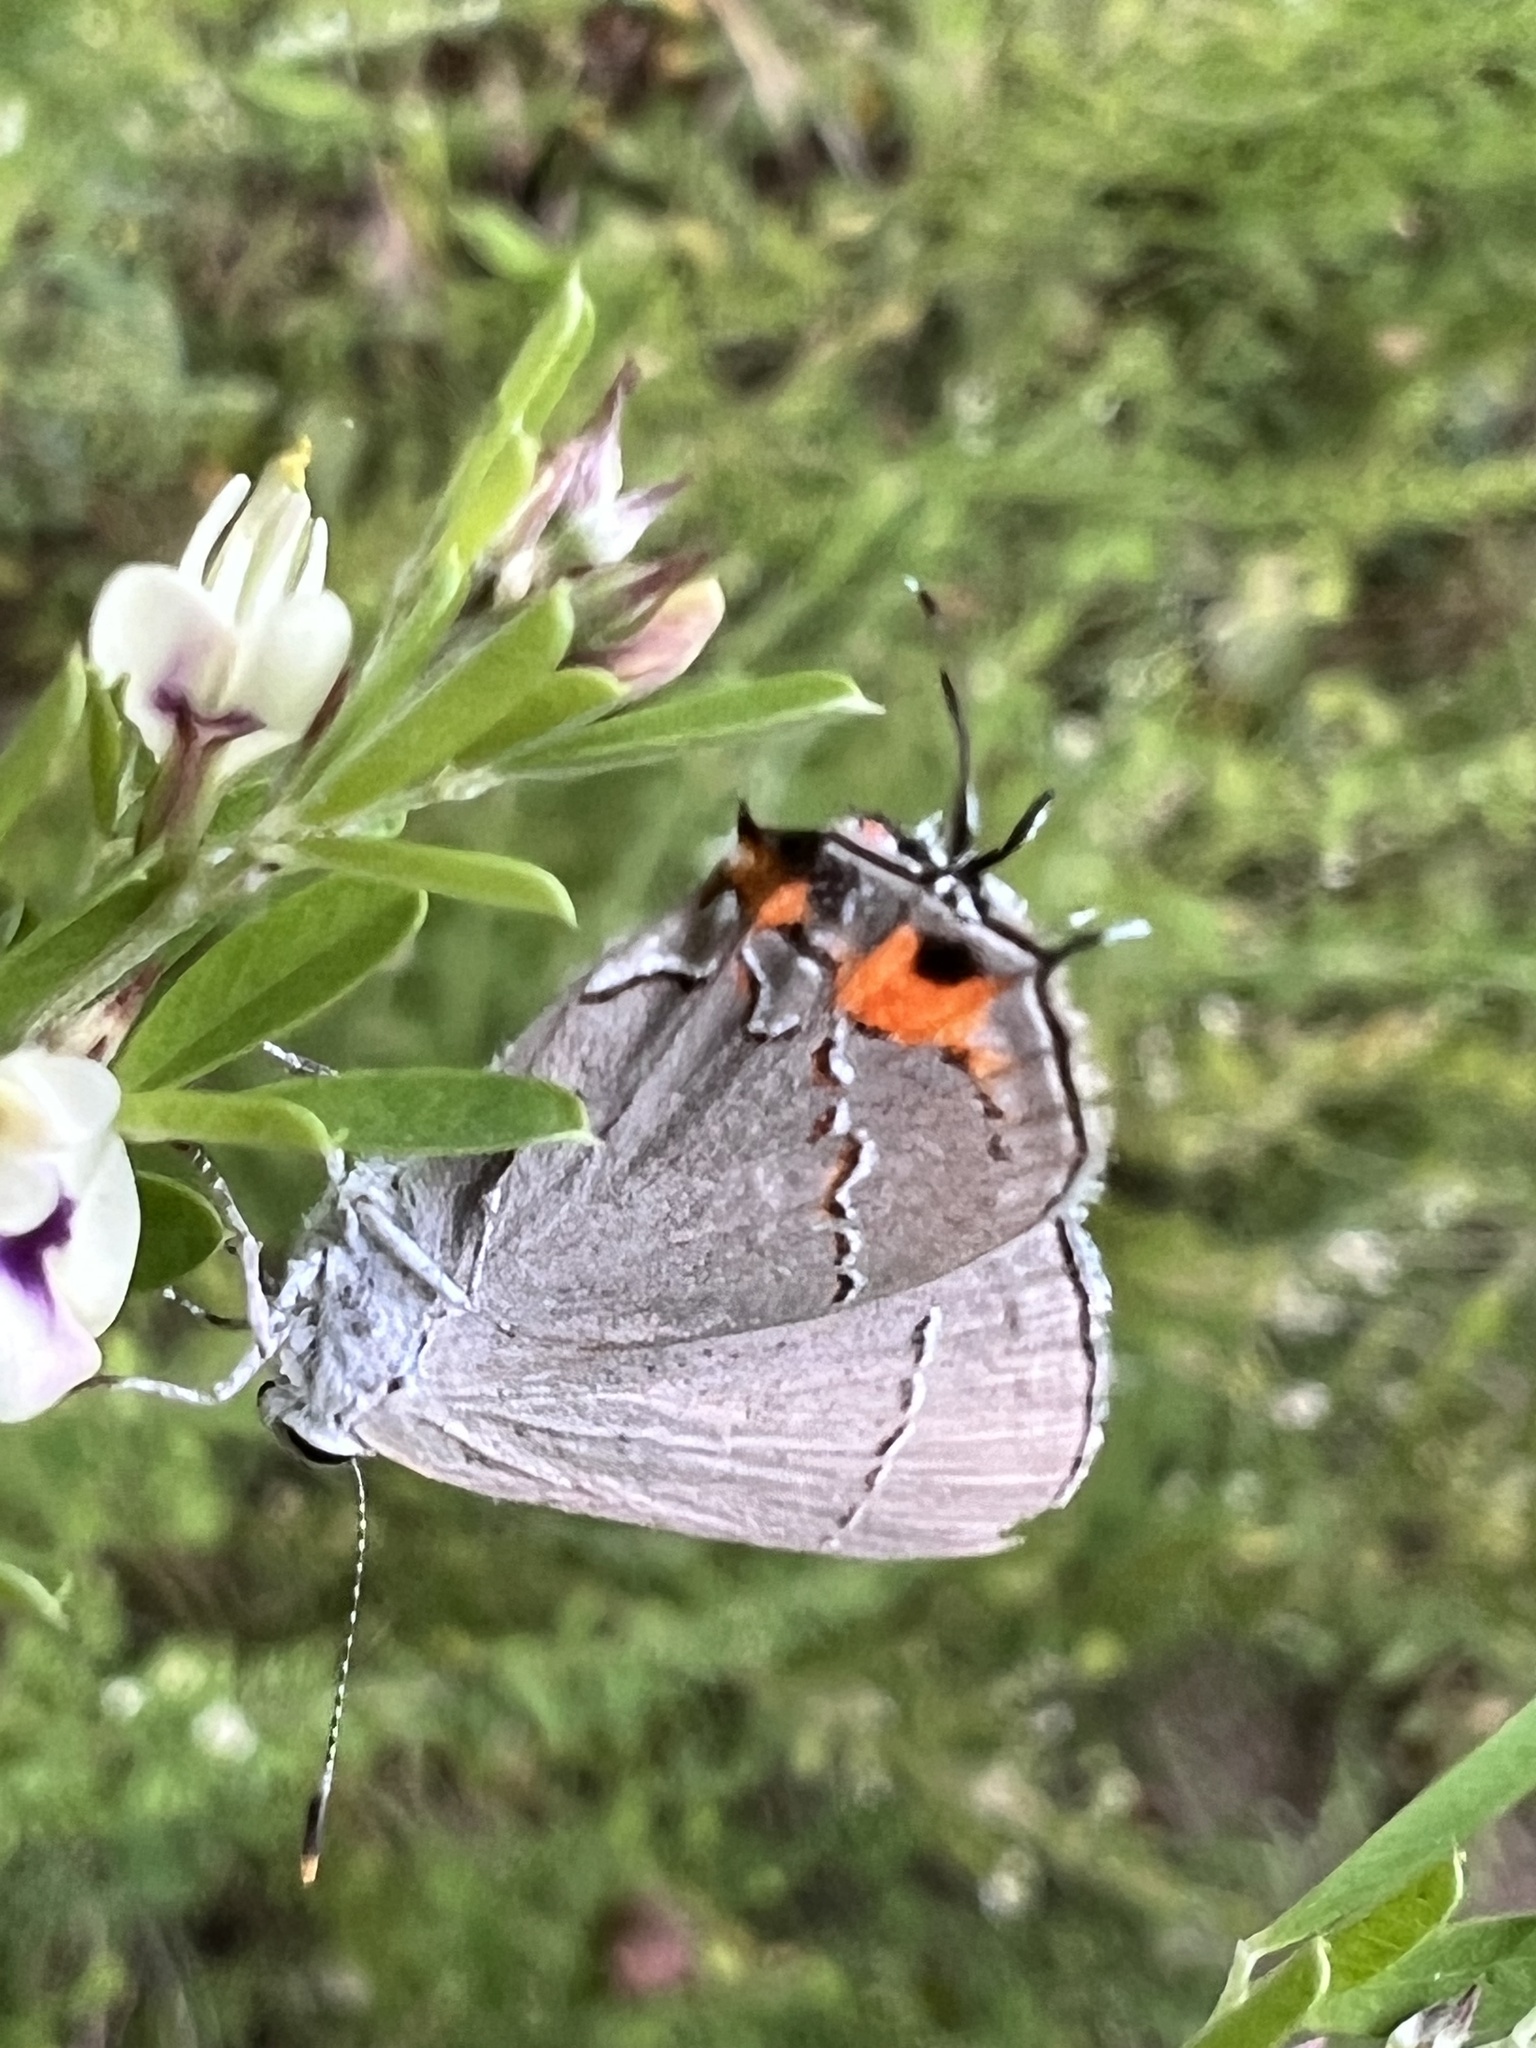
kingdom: Animalia
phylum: Arthropoda
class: Insecta
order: Lepidoptera
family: Lycaenidae
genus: Strymon
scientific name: Strymon melinus
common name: Gray hairstreak
